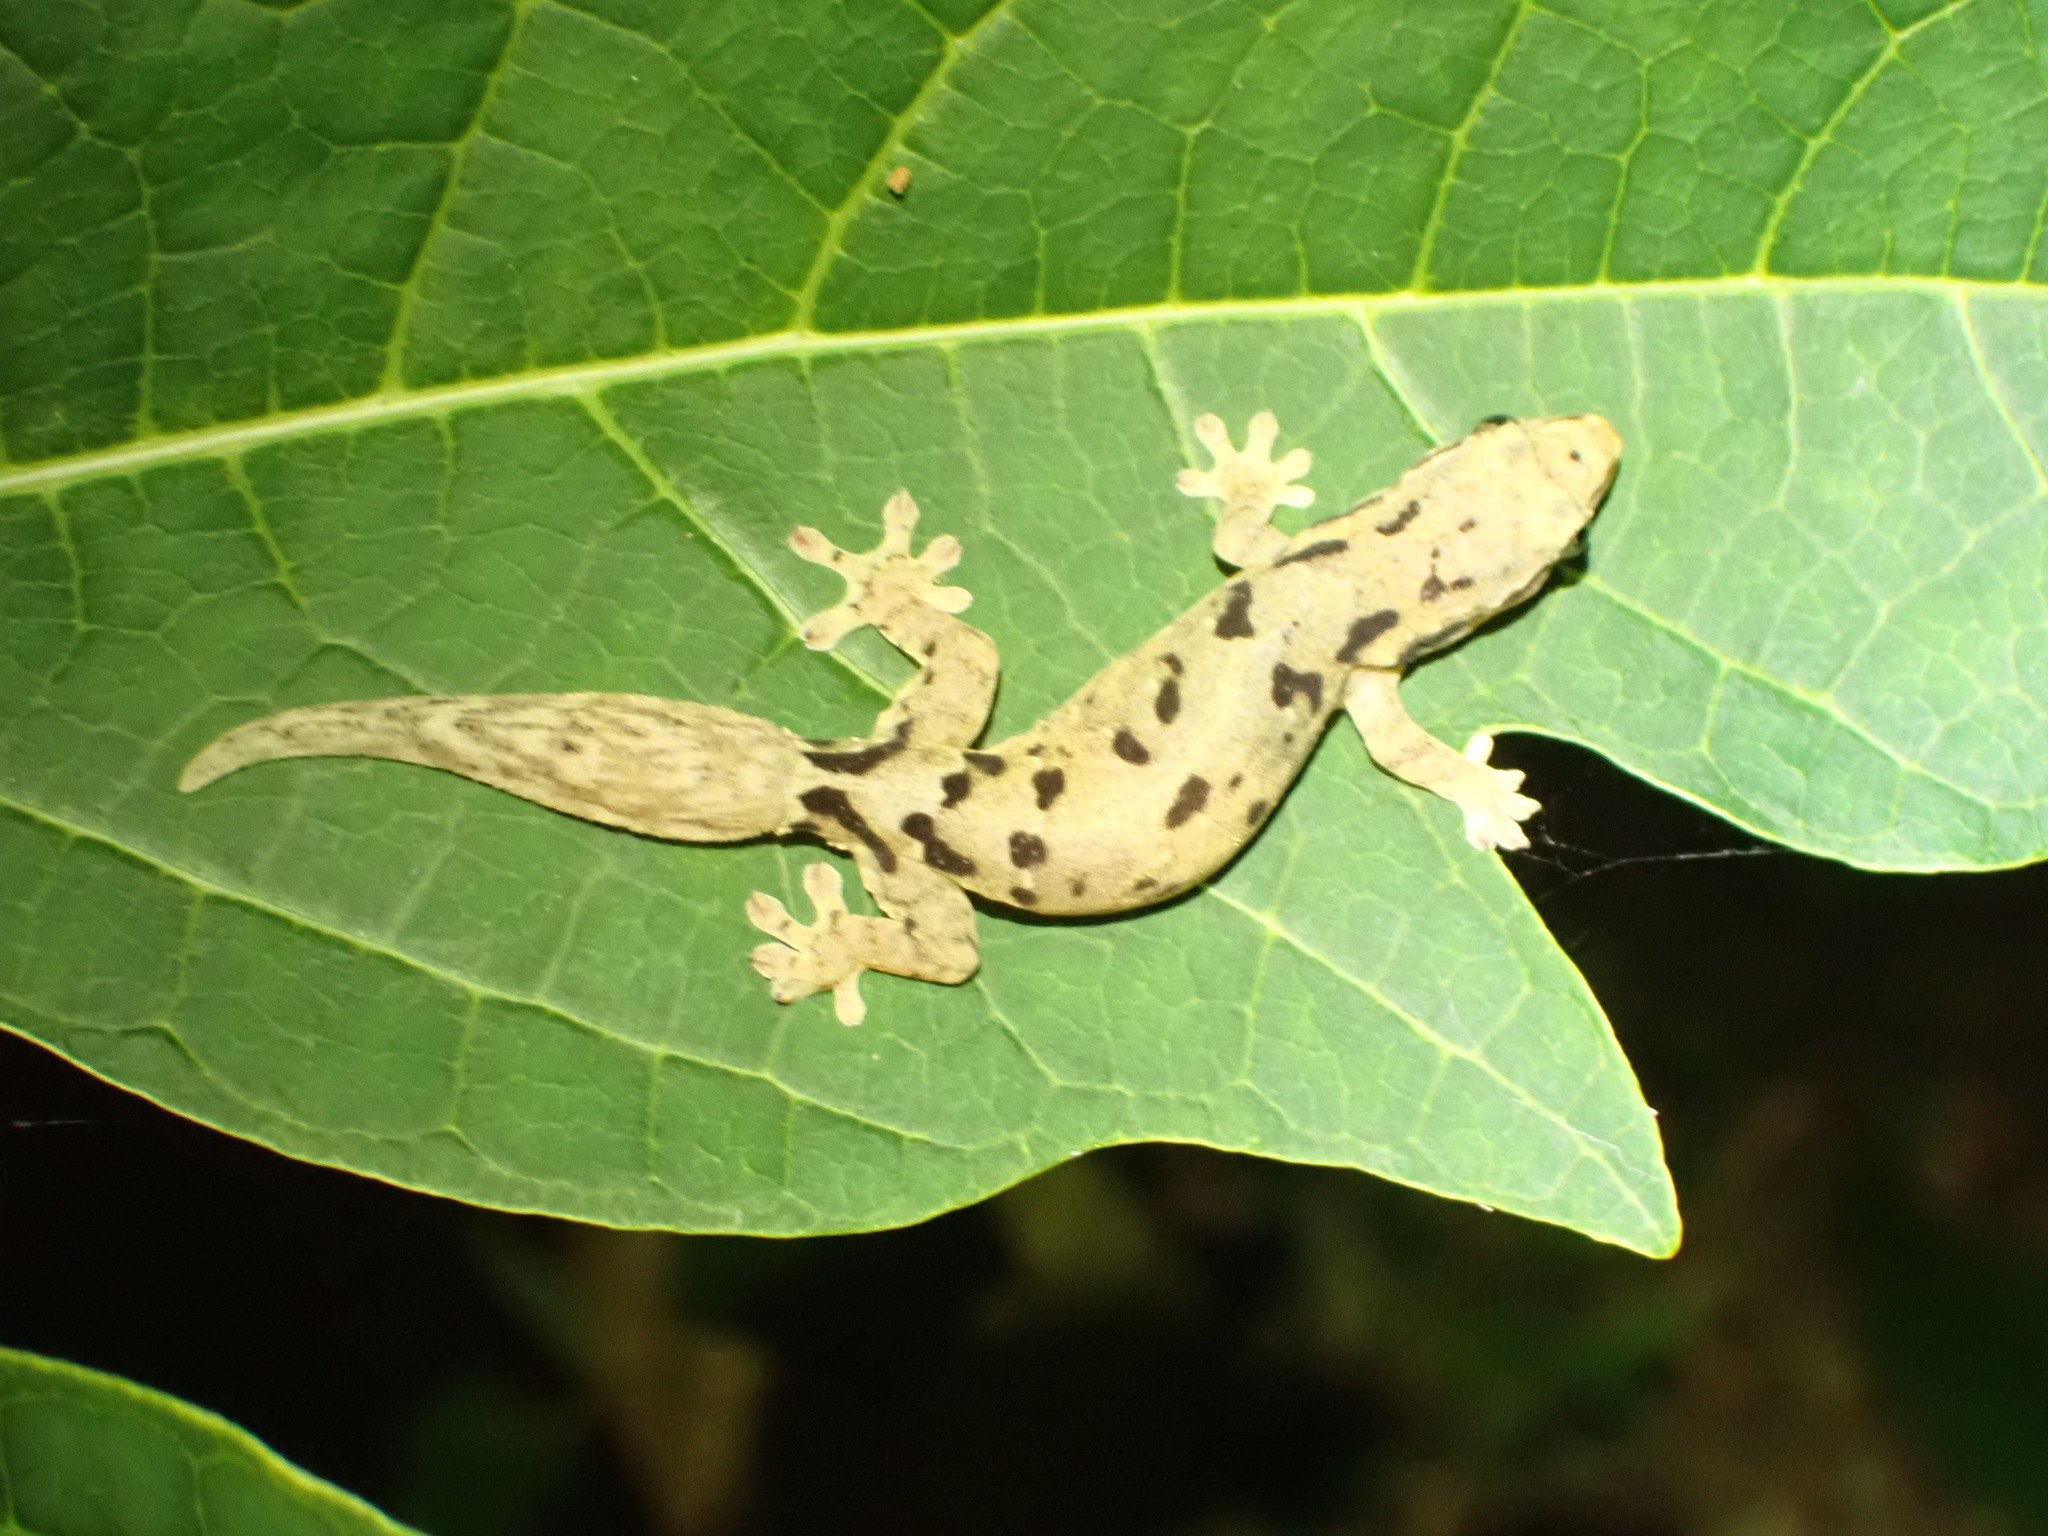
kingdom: Animalia
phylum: Chordata
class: Squamata
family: Gekkonidae
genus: Lepidodactylus
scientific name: Lepidodactylus lugubris
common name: Mourning gecko
